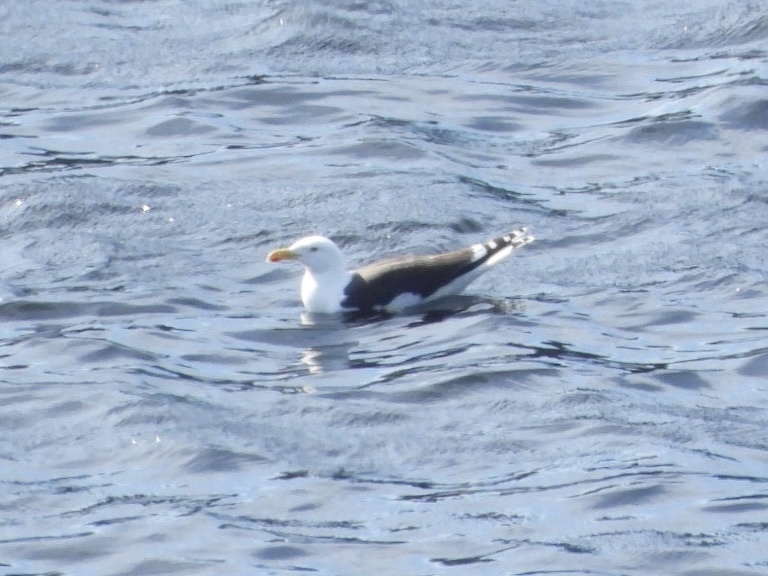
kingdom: Animalia
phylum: Chordata
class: Aves
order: Charadriiformes
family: Laridae
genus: Larus
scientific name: Larus marinus
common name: Great black-backed gull
